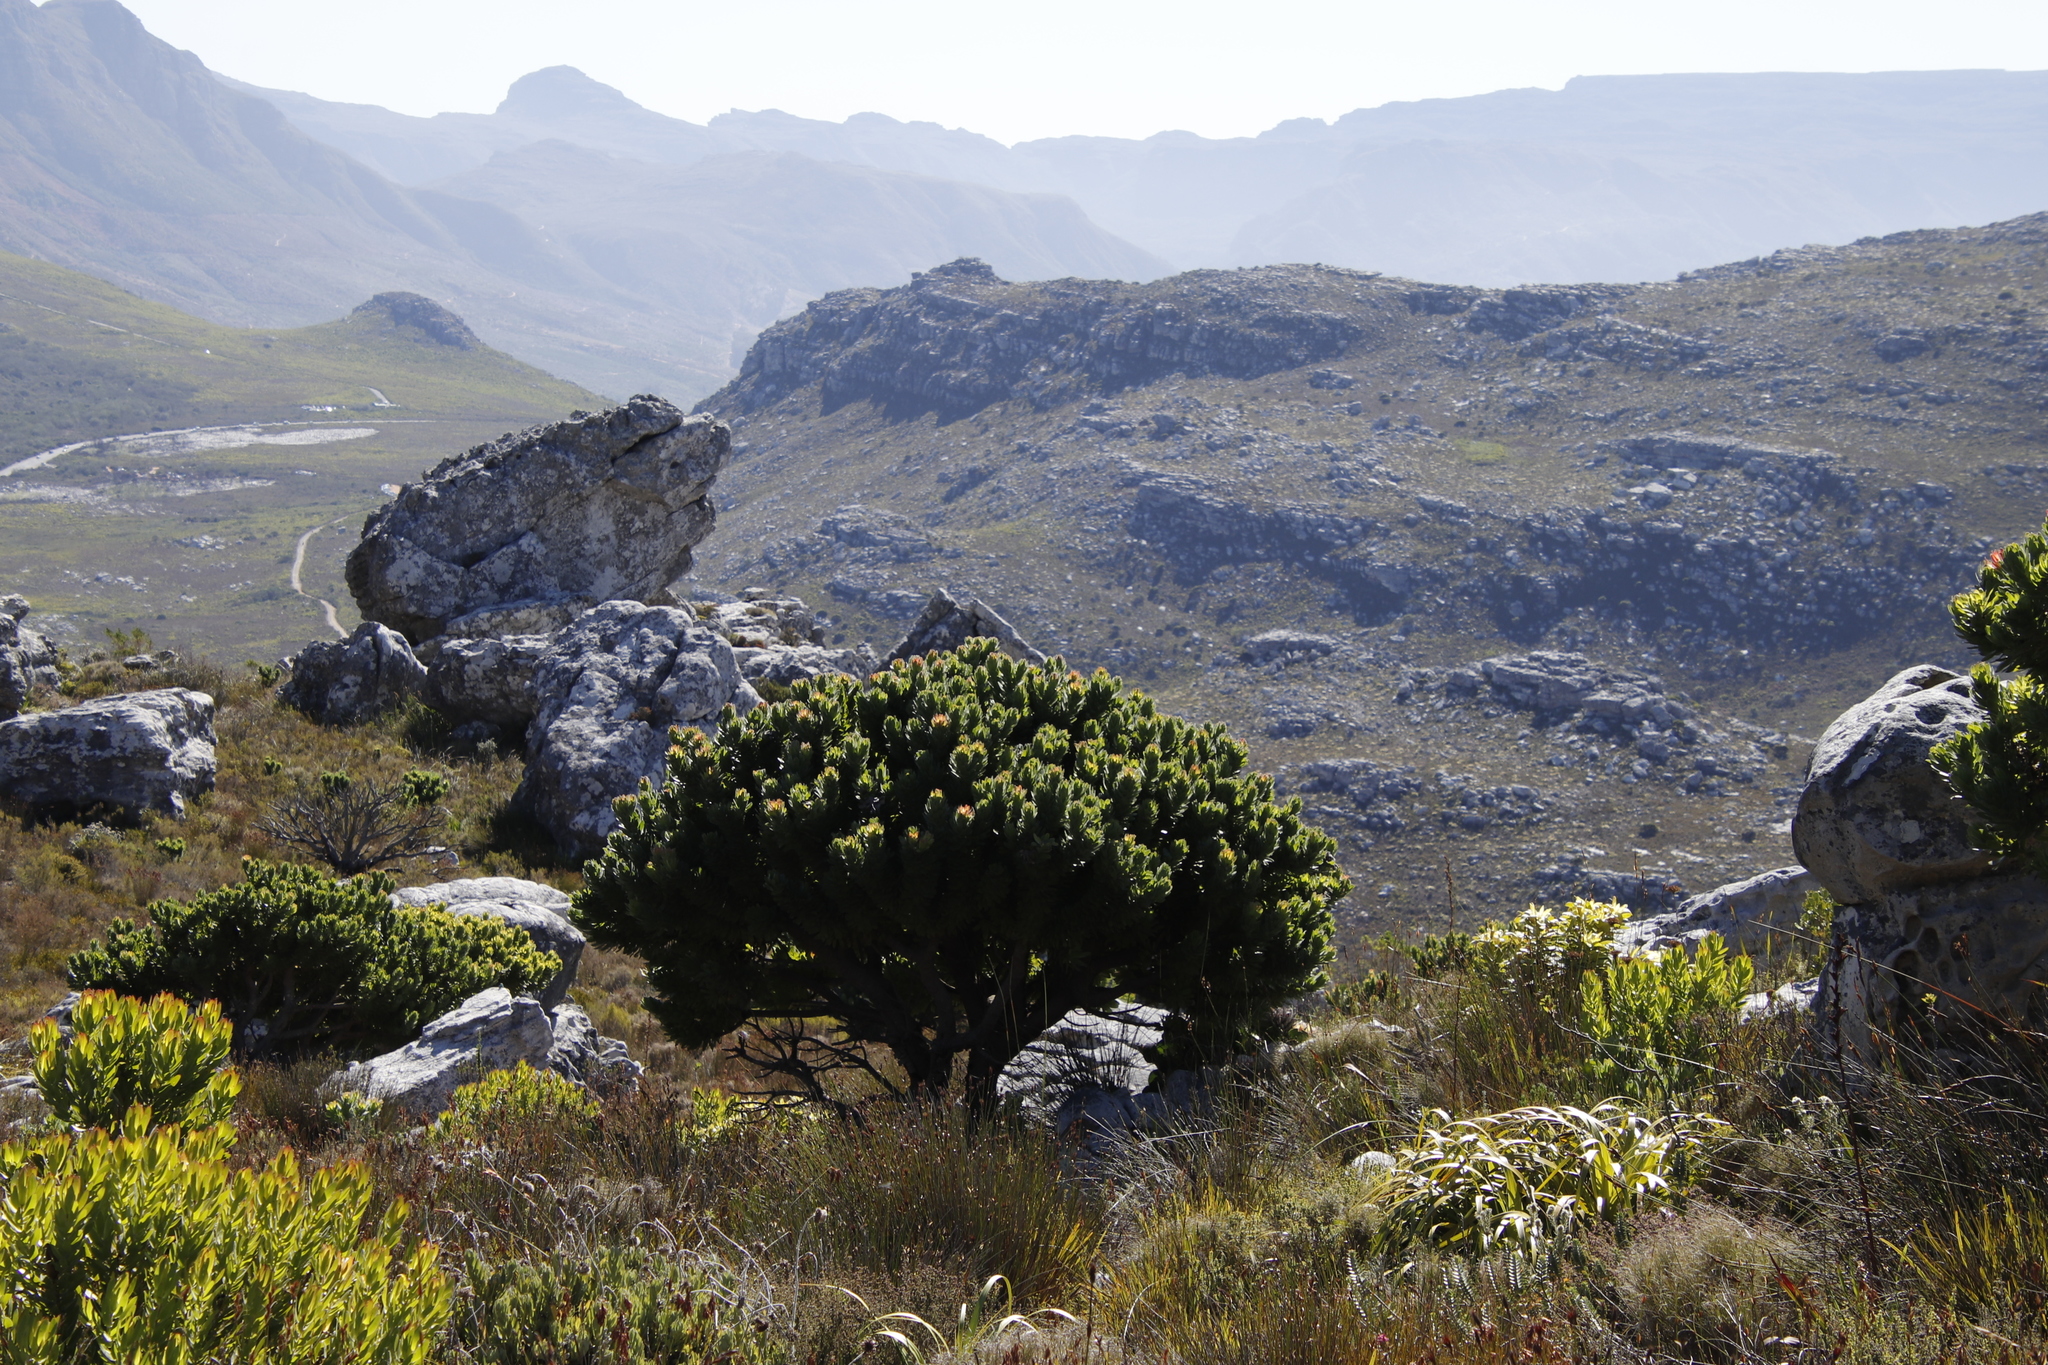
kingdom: Plantae
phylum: Tracheophyta
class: Magnoliopsida
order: Proteales
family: Proteaceae
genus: Mimetes
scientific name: Mimetes fimbriifolius
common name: Fringed bottlebrush
